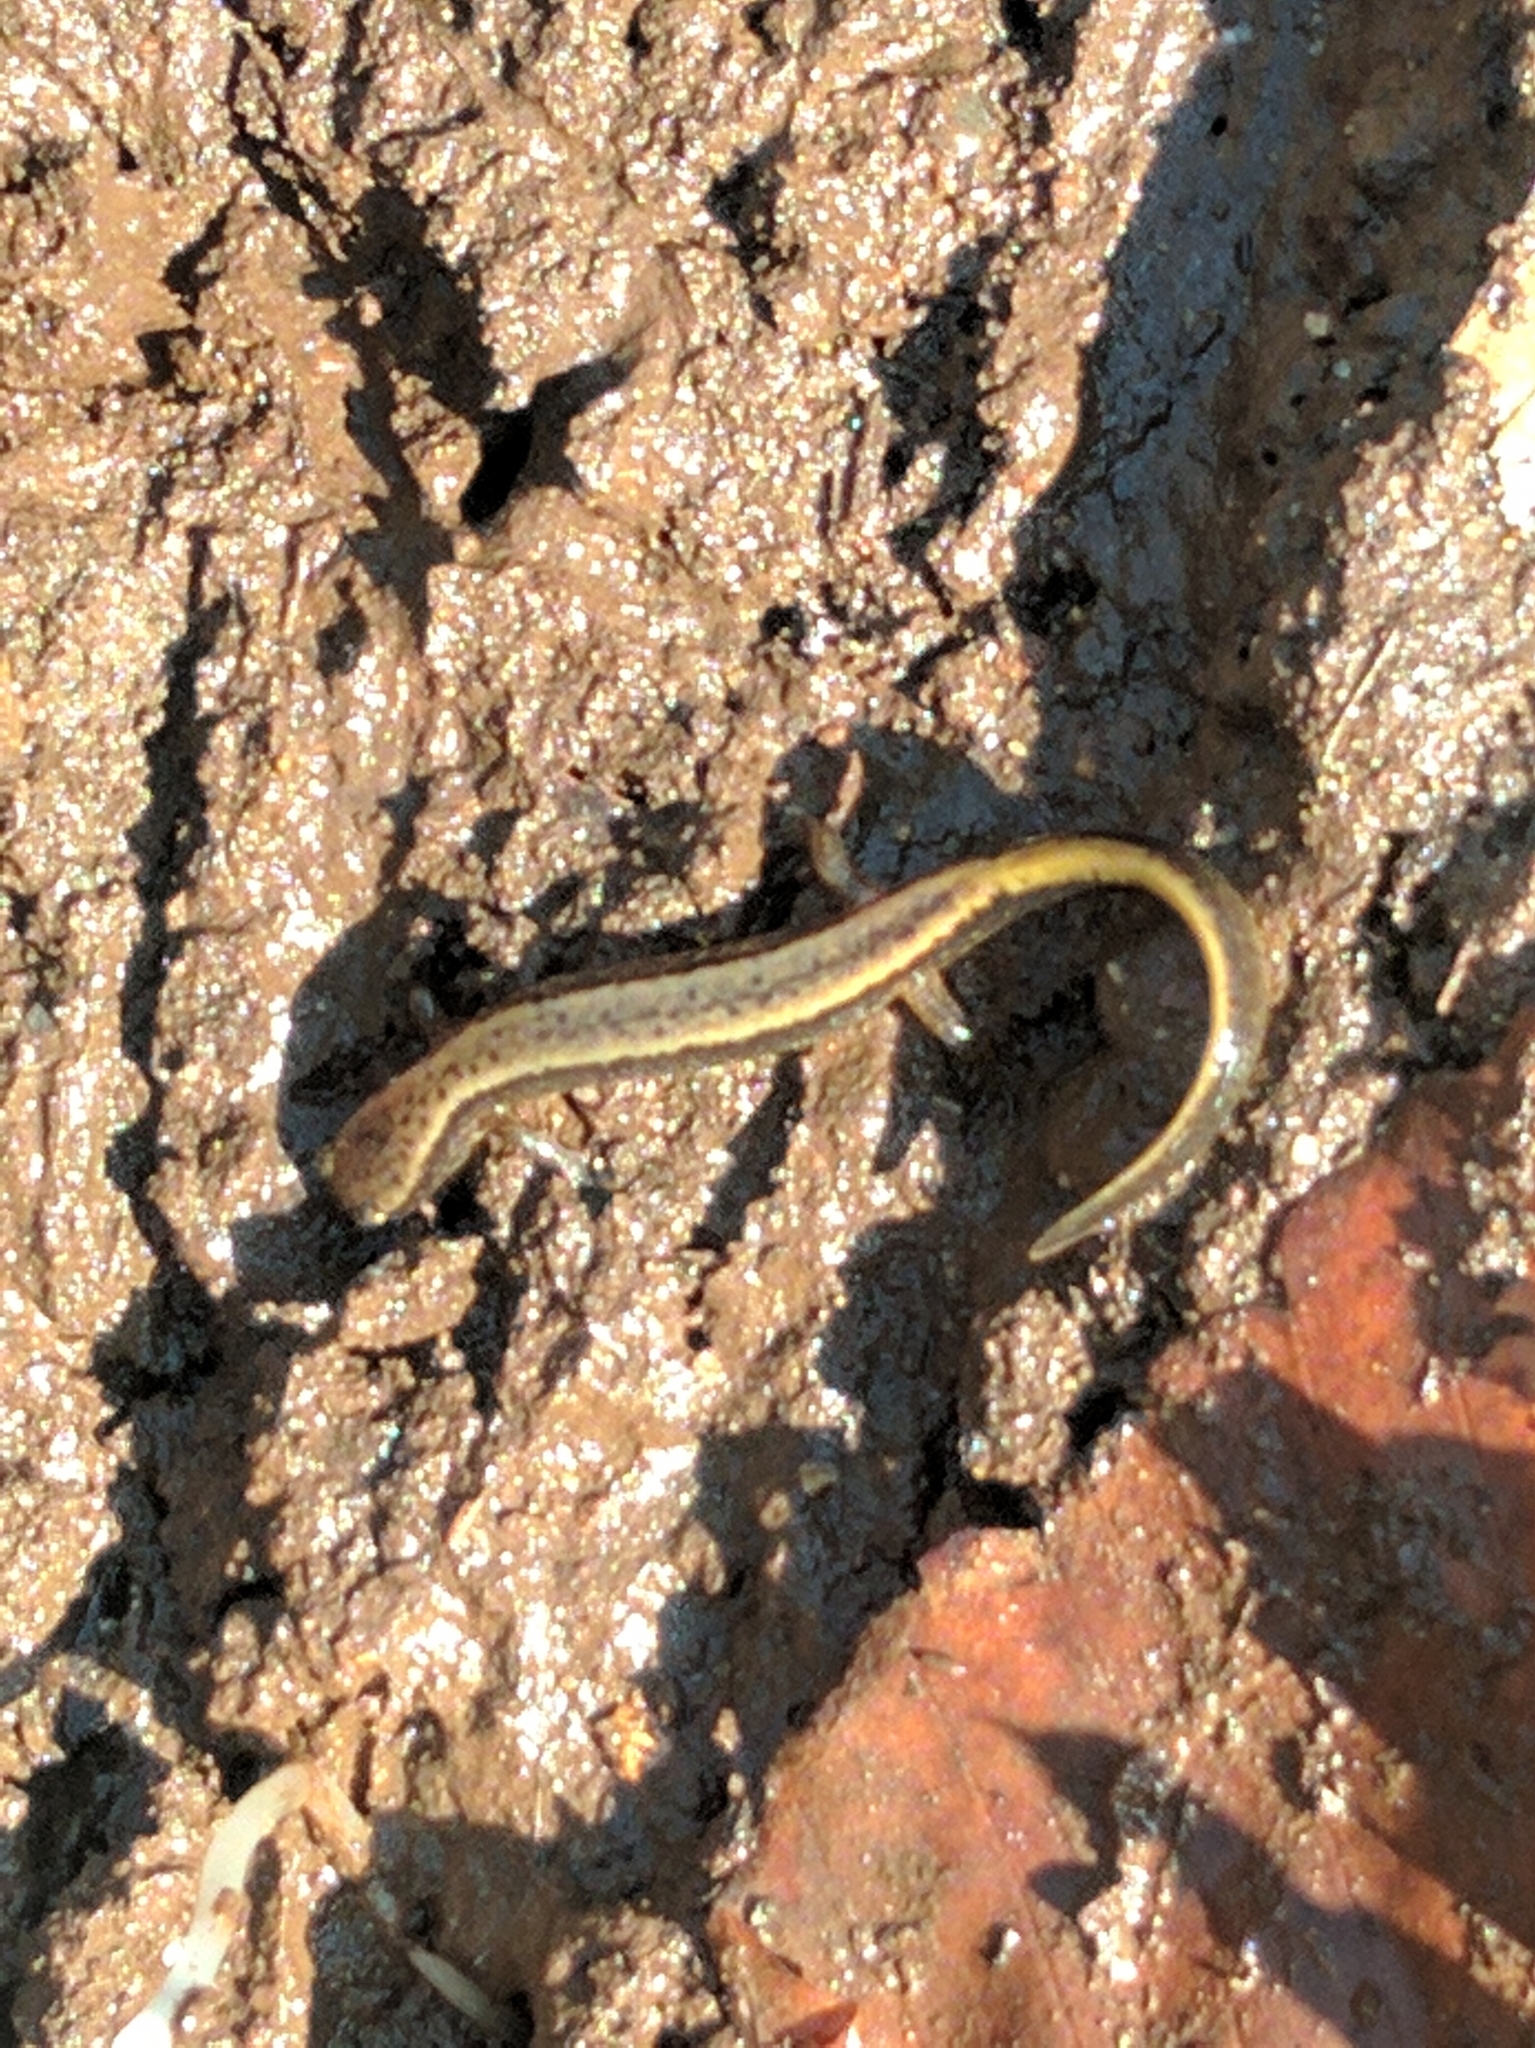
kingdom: Animalia
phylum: Chordata
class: Amphibia
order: Caudata
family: Plethodontidae
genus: Eurycea
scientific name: Eurycea bislineata
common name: Northern two-lined salamander
